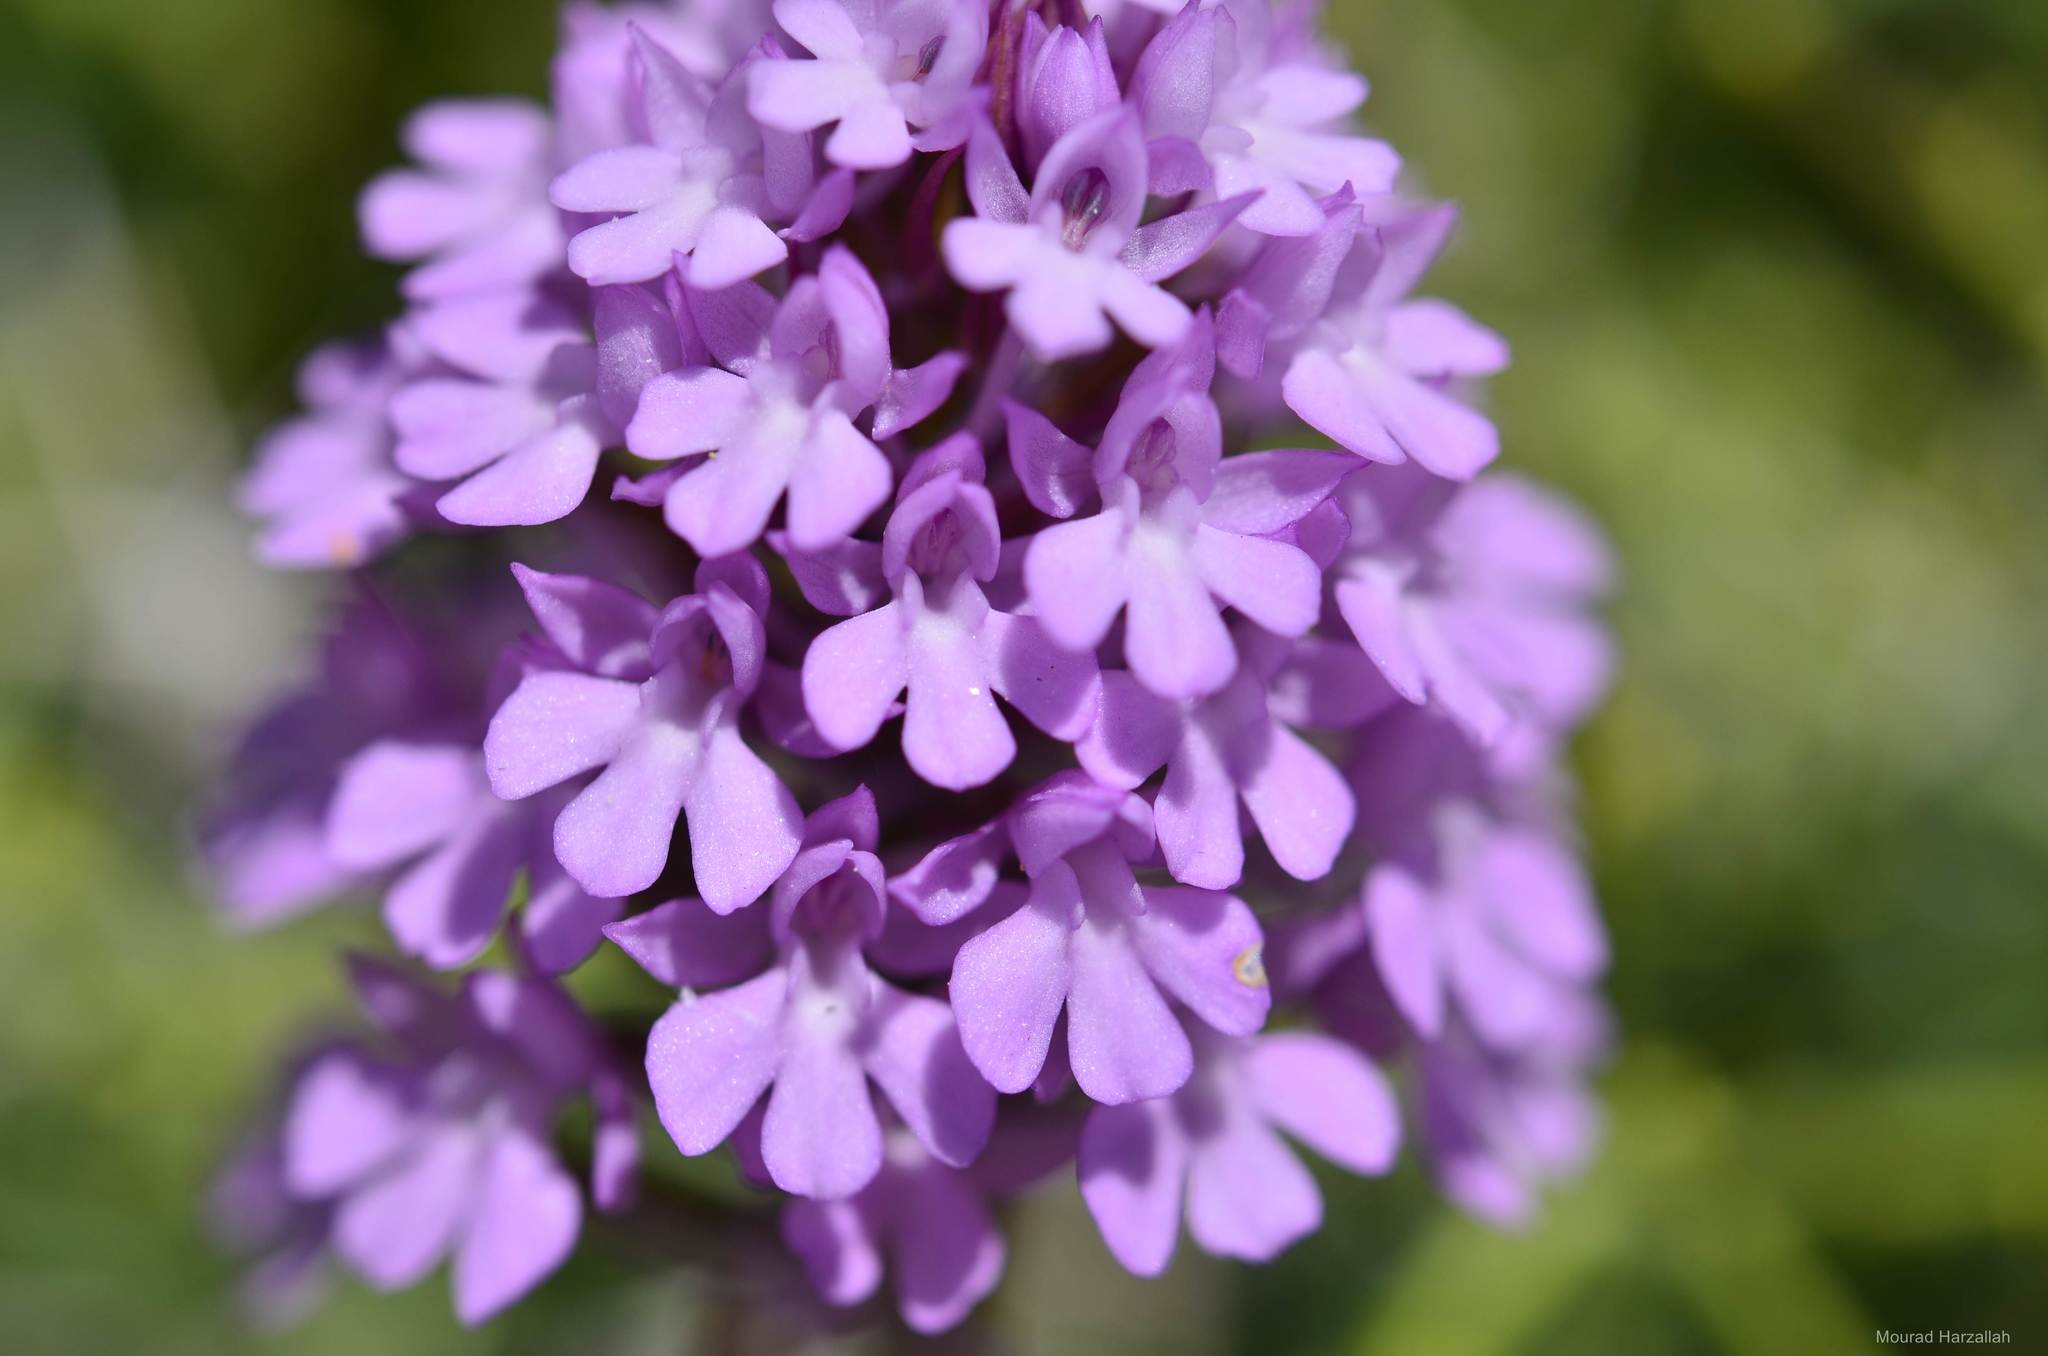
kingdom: Plantae
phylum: Tracheophyta
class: Liliopsida
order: Asparagales
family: Orchidaceae
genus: Anacamptis
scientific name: Anacamptis pyramidalis
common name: Pyramidal orchid
